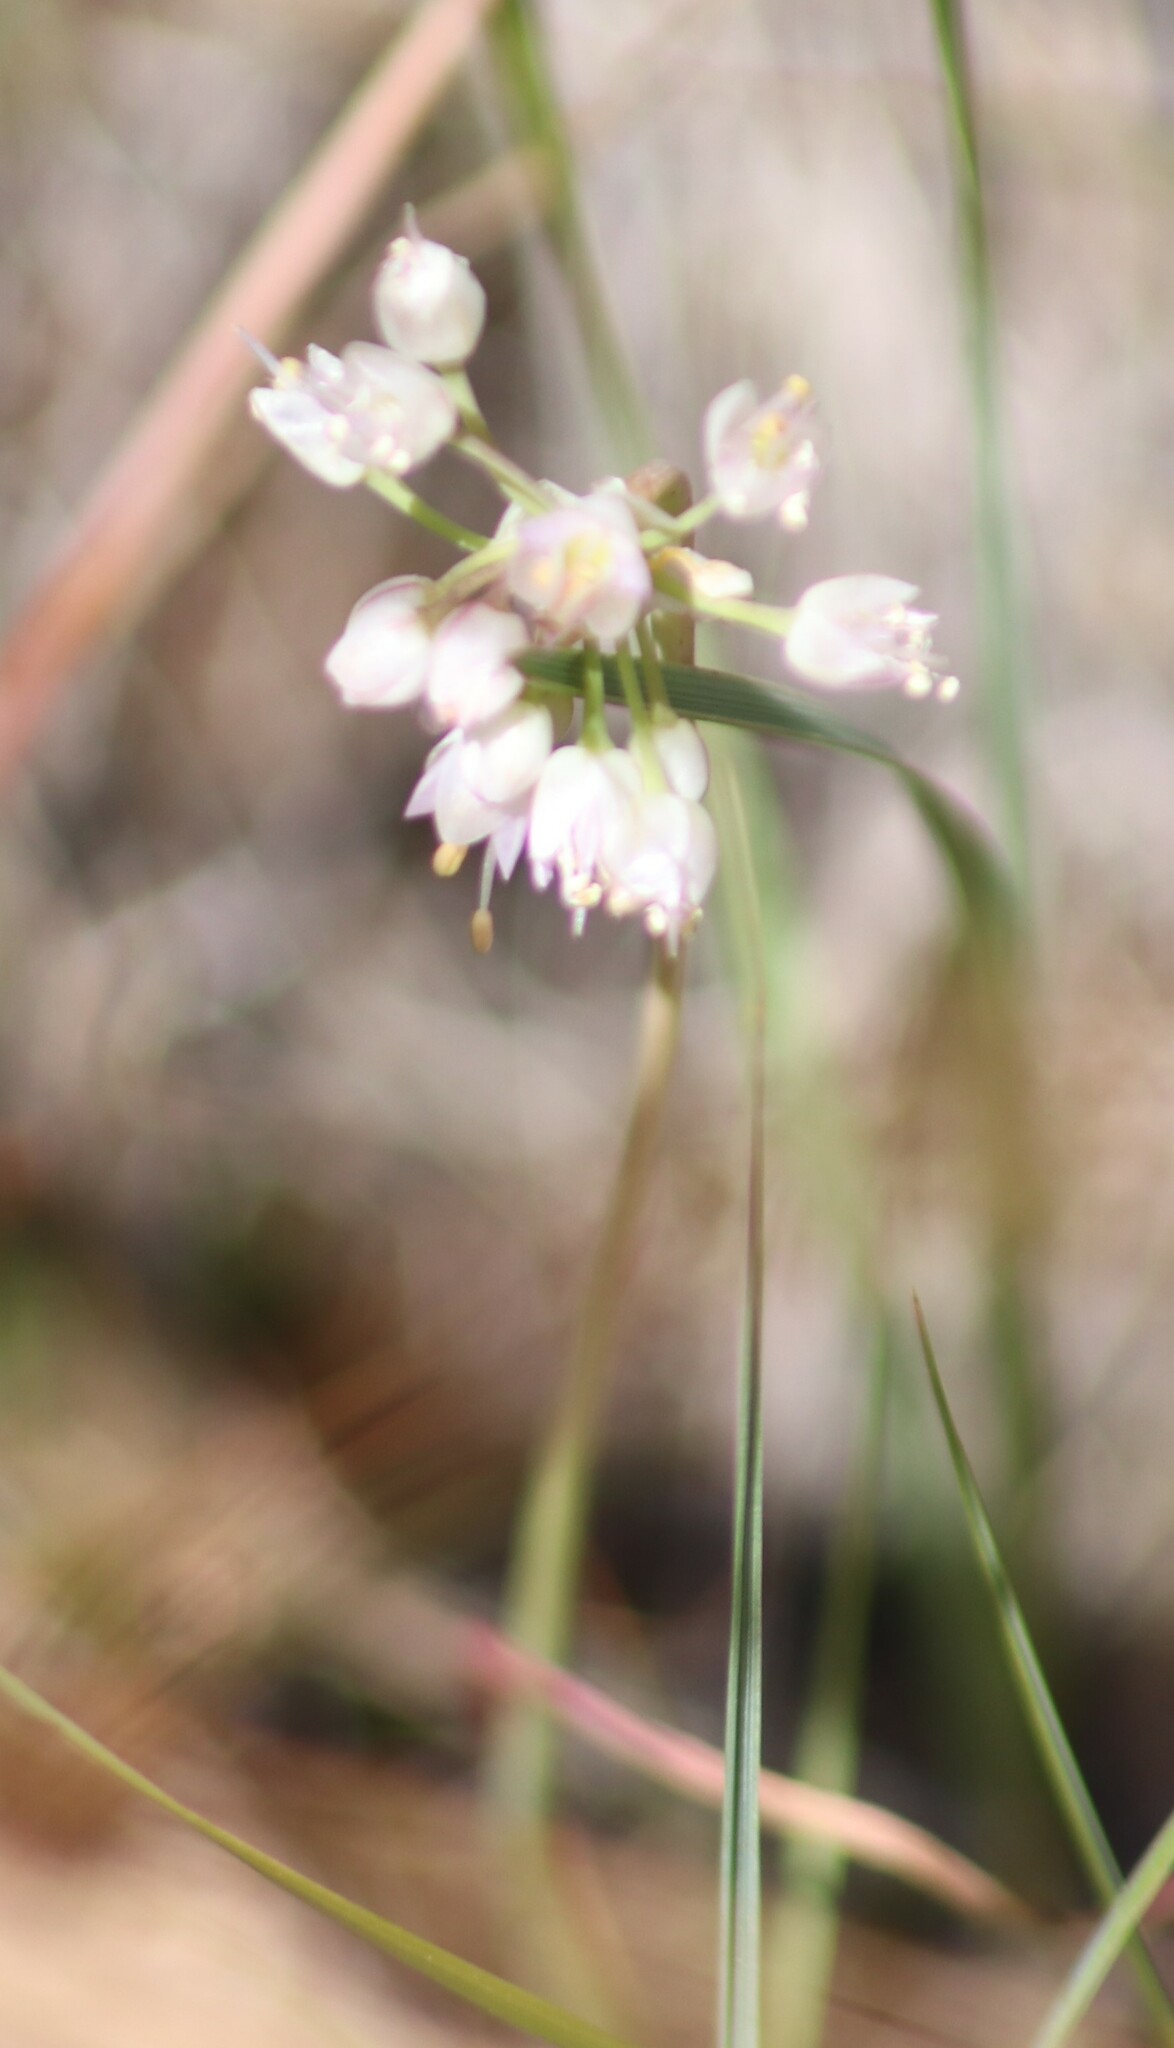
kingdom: Plantae
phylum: Tracheophyta
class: Liliopsida
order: Asparagales
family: Amaryllidaceae
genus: Allium
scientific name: Allium cernuum
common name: Nodding onion
